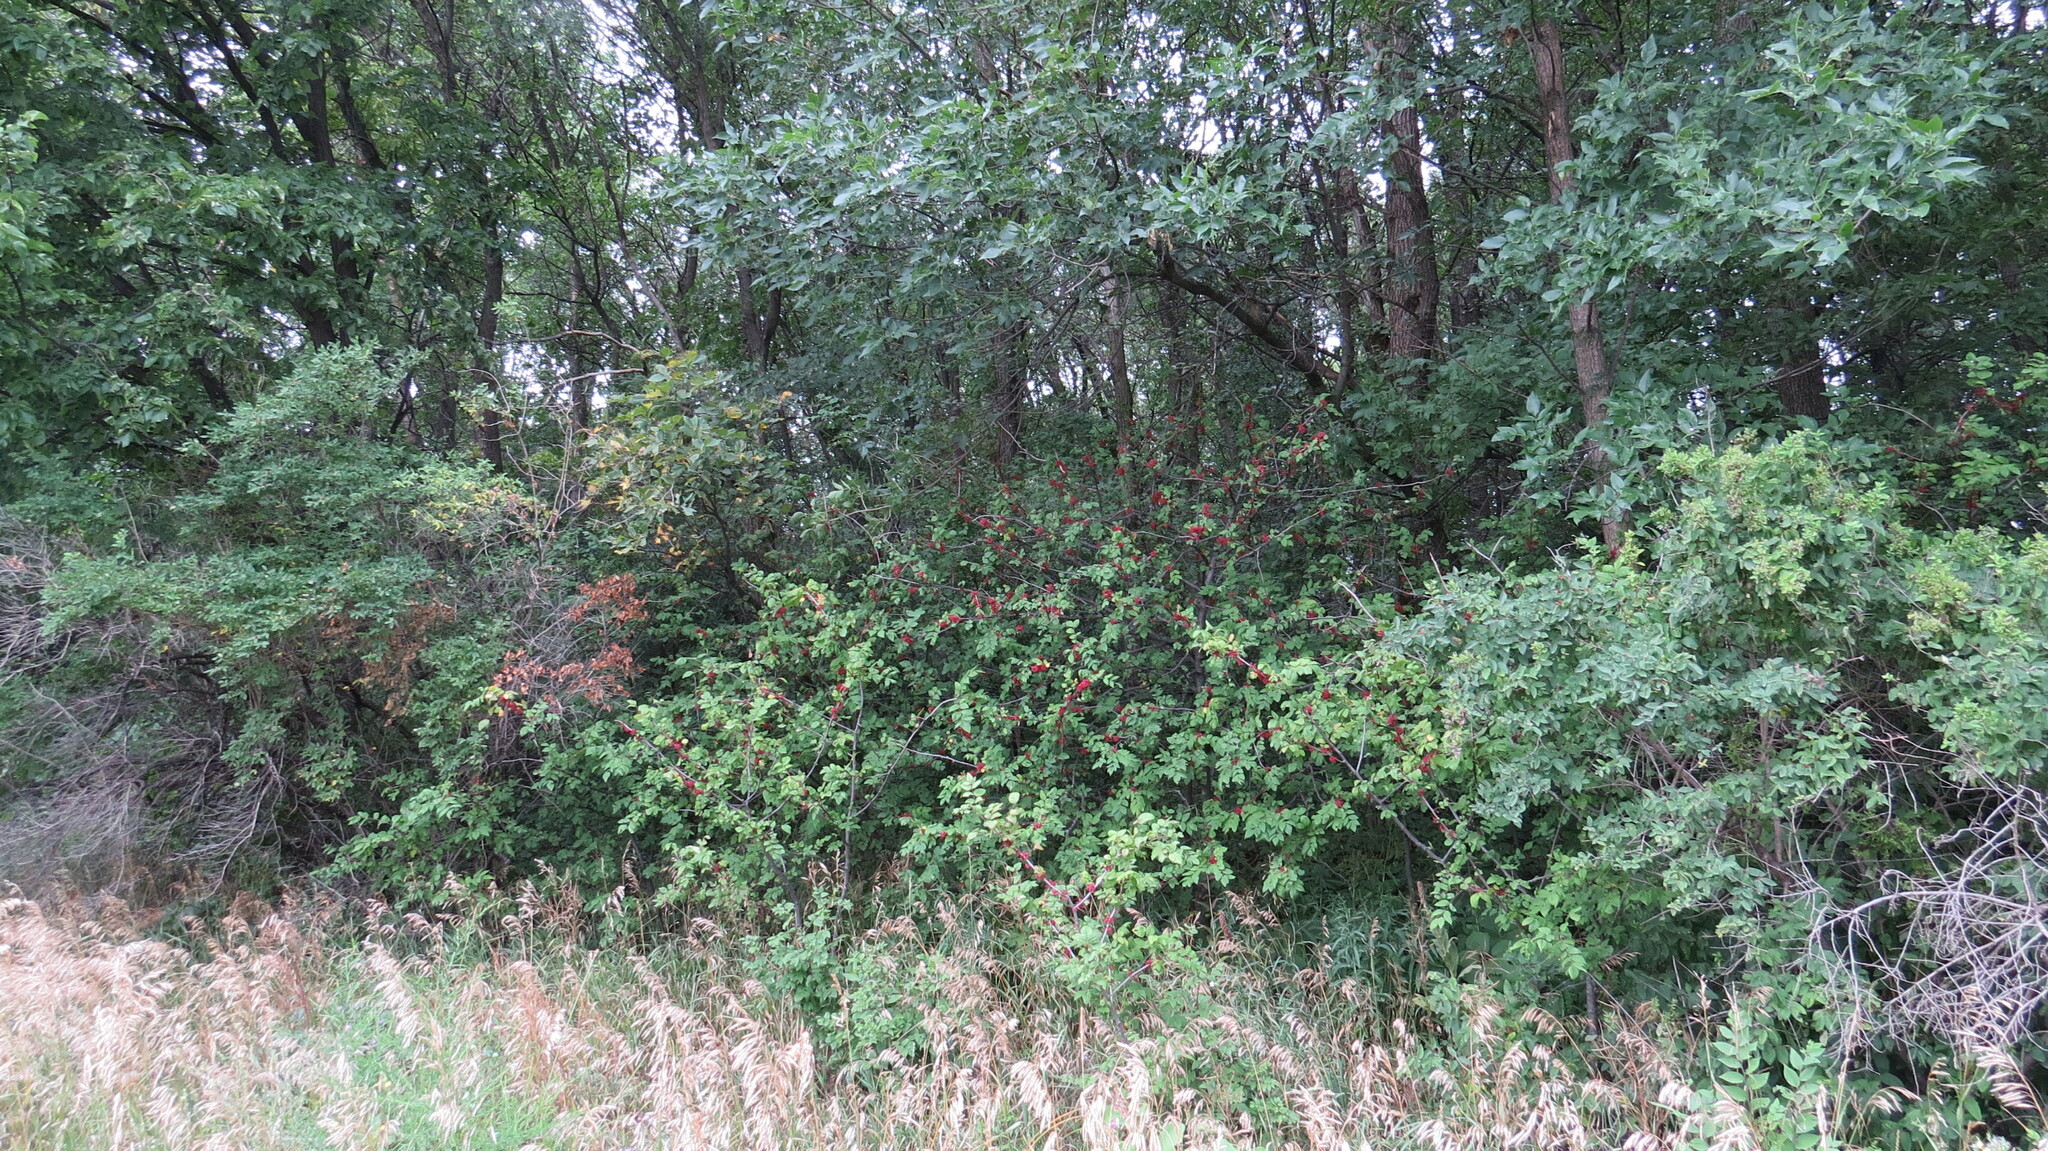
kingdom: Plantae
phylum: Tracheophyta
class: Magnoliopsida
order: Sapindales
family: Rutaceae
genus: Zanthoxylum
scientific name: Zanthoxylum americanum
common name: Northern prickly-ash
